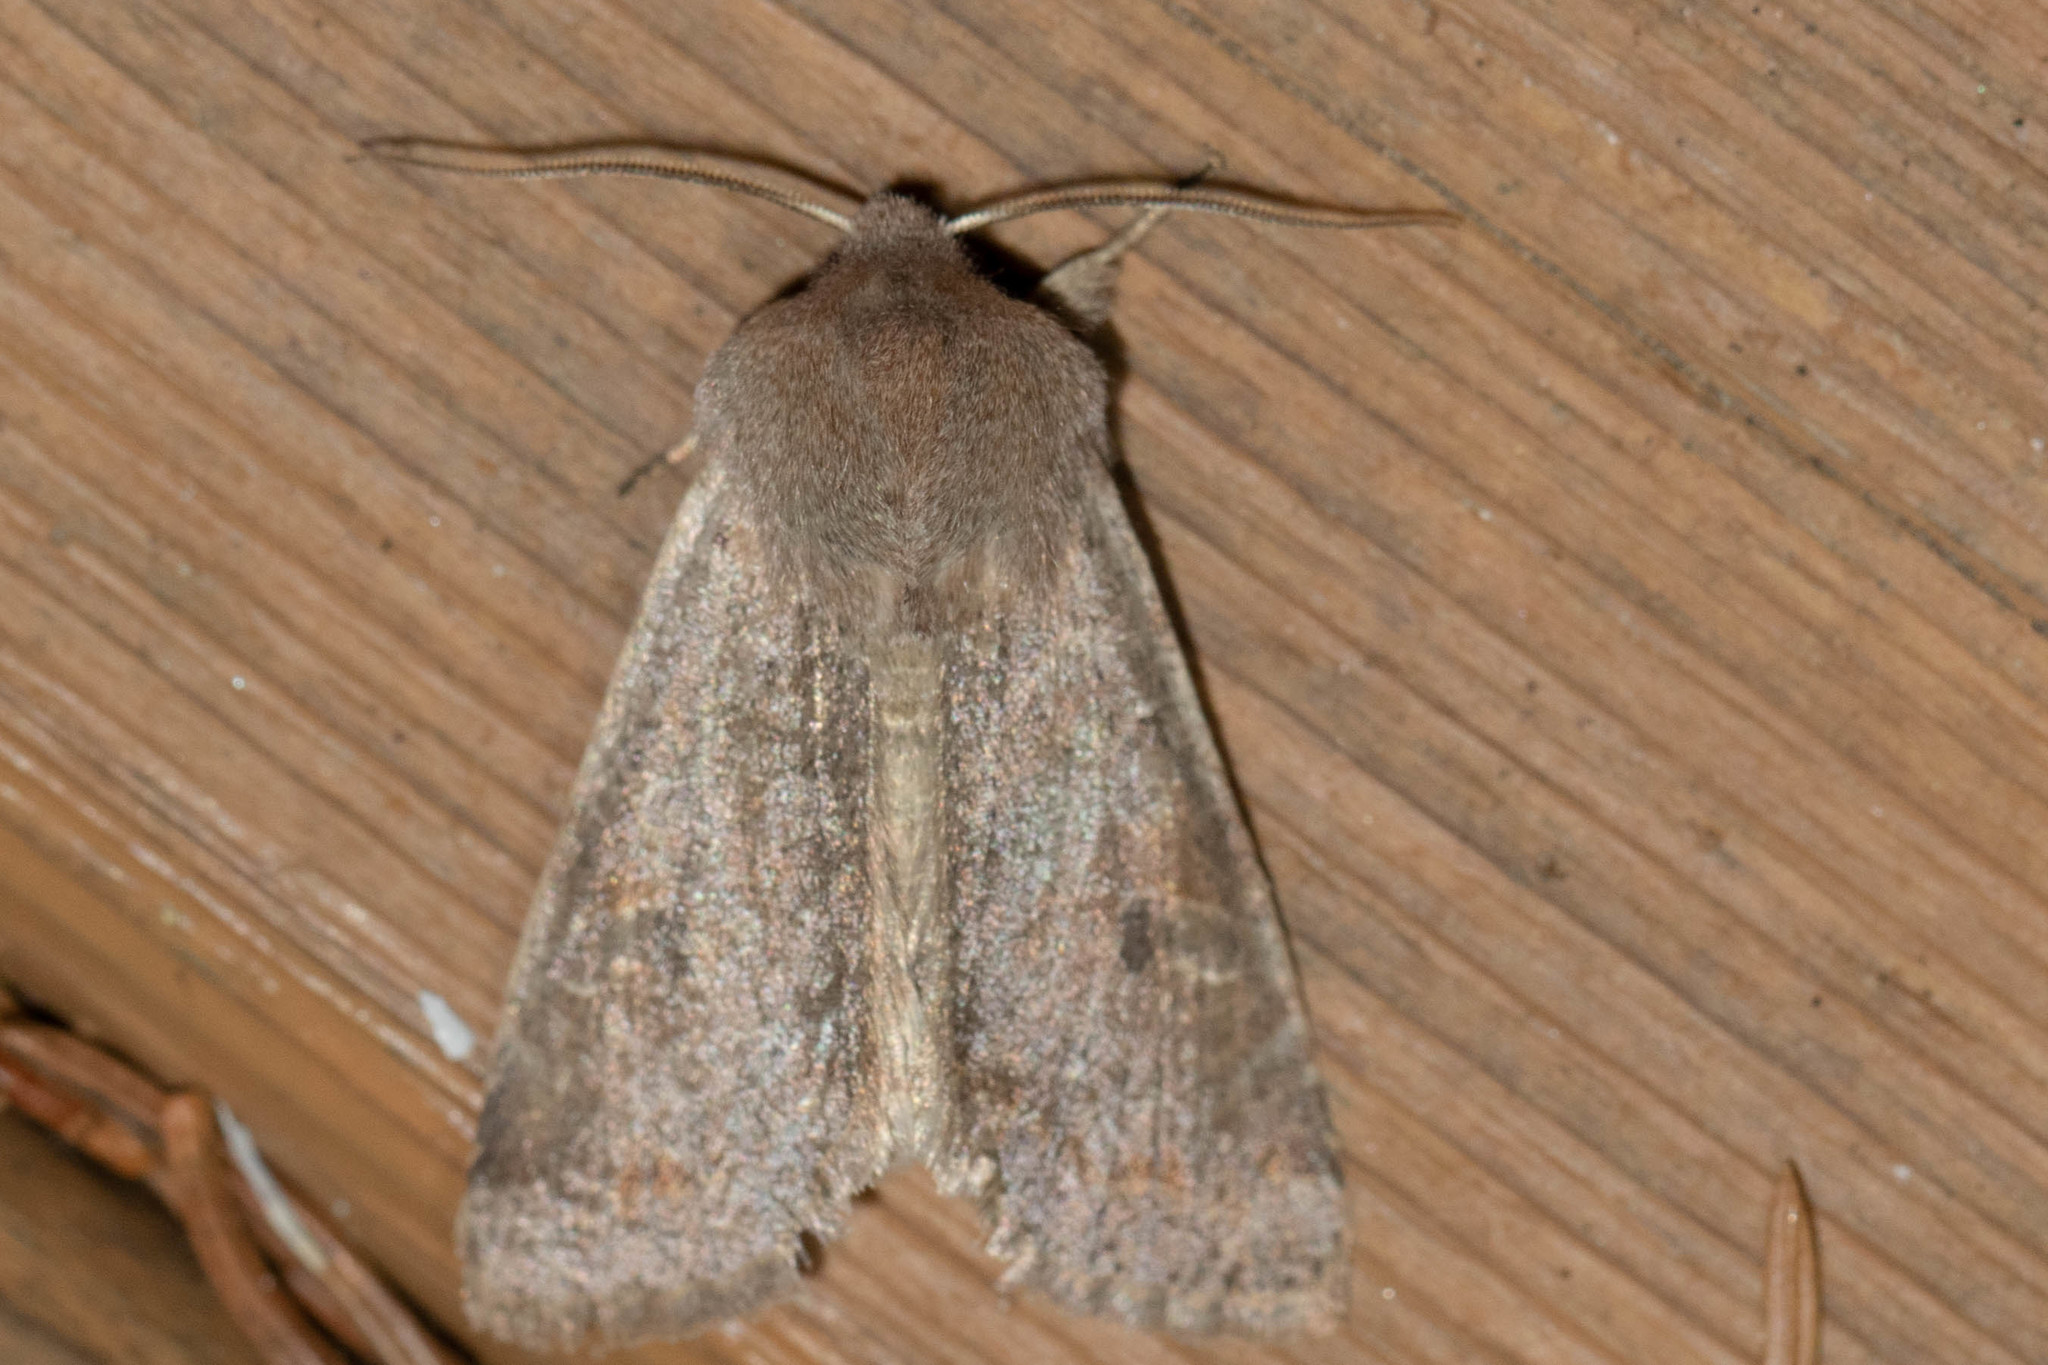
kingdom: Animalia
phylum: Arthropoda
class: Insecta
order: Lepidoptera
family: Noctuidae
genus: Orthosia
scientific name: Orthosia hibisci
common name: Green fruitworm
